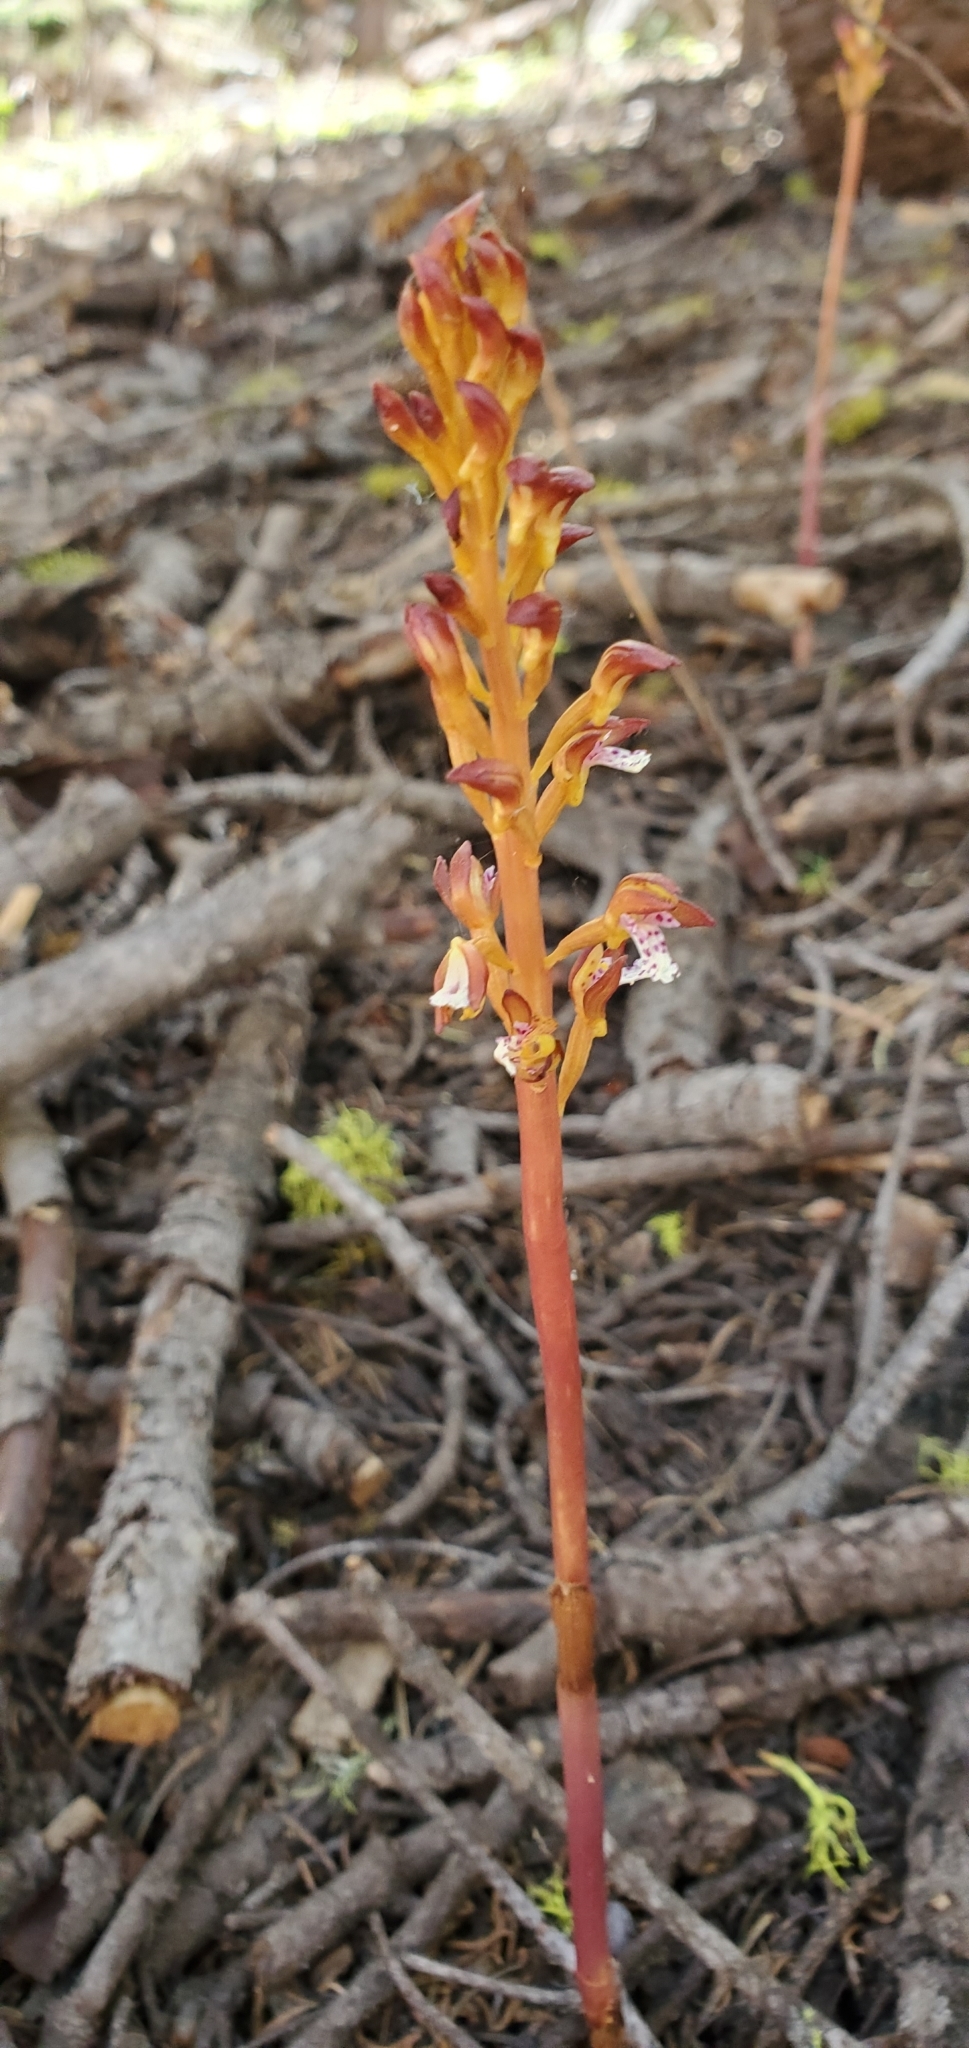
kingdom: Plantae
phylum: Tracheophyta
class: Liliopsida
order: Asparagales
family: Orchidaceae
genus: Corallorhiza
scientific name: Corallorhiza maculata
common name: Spotted coralroot
